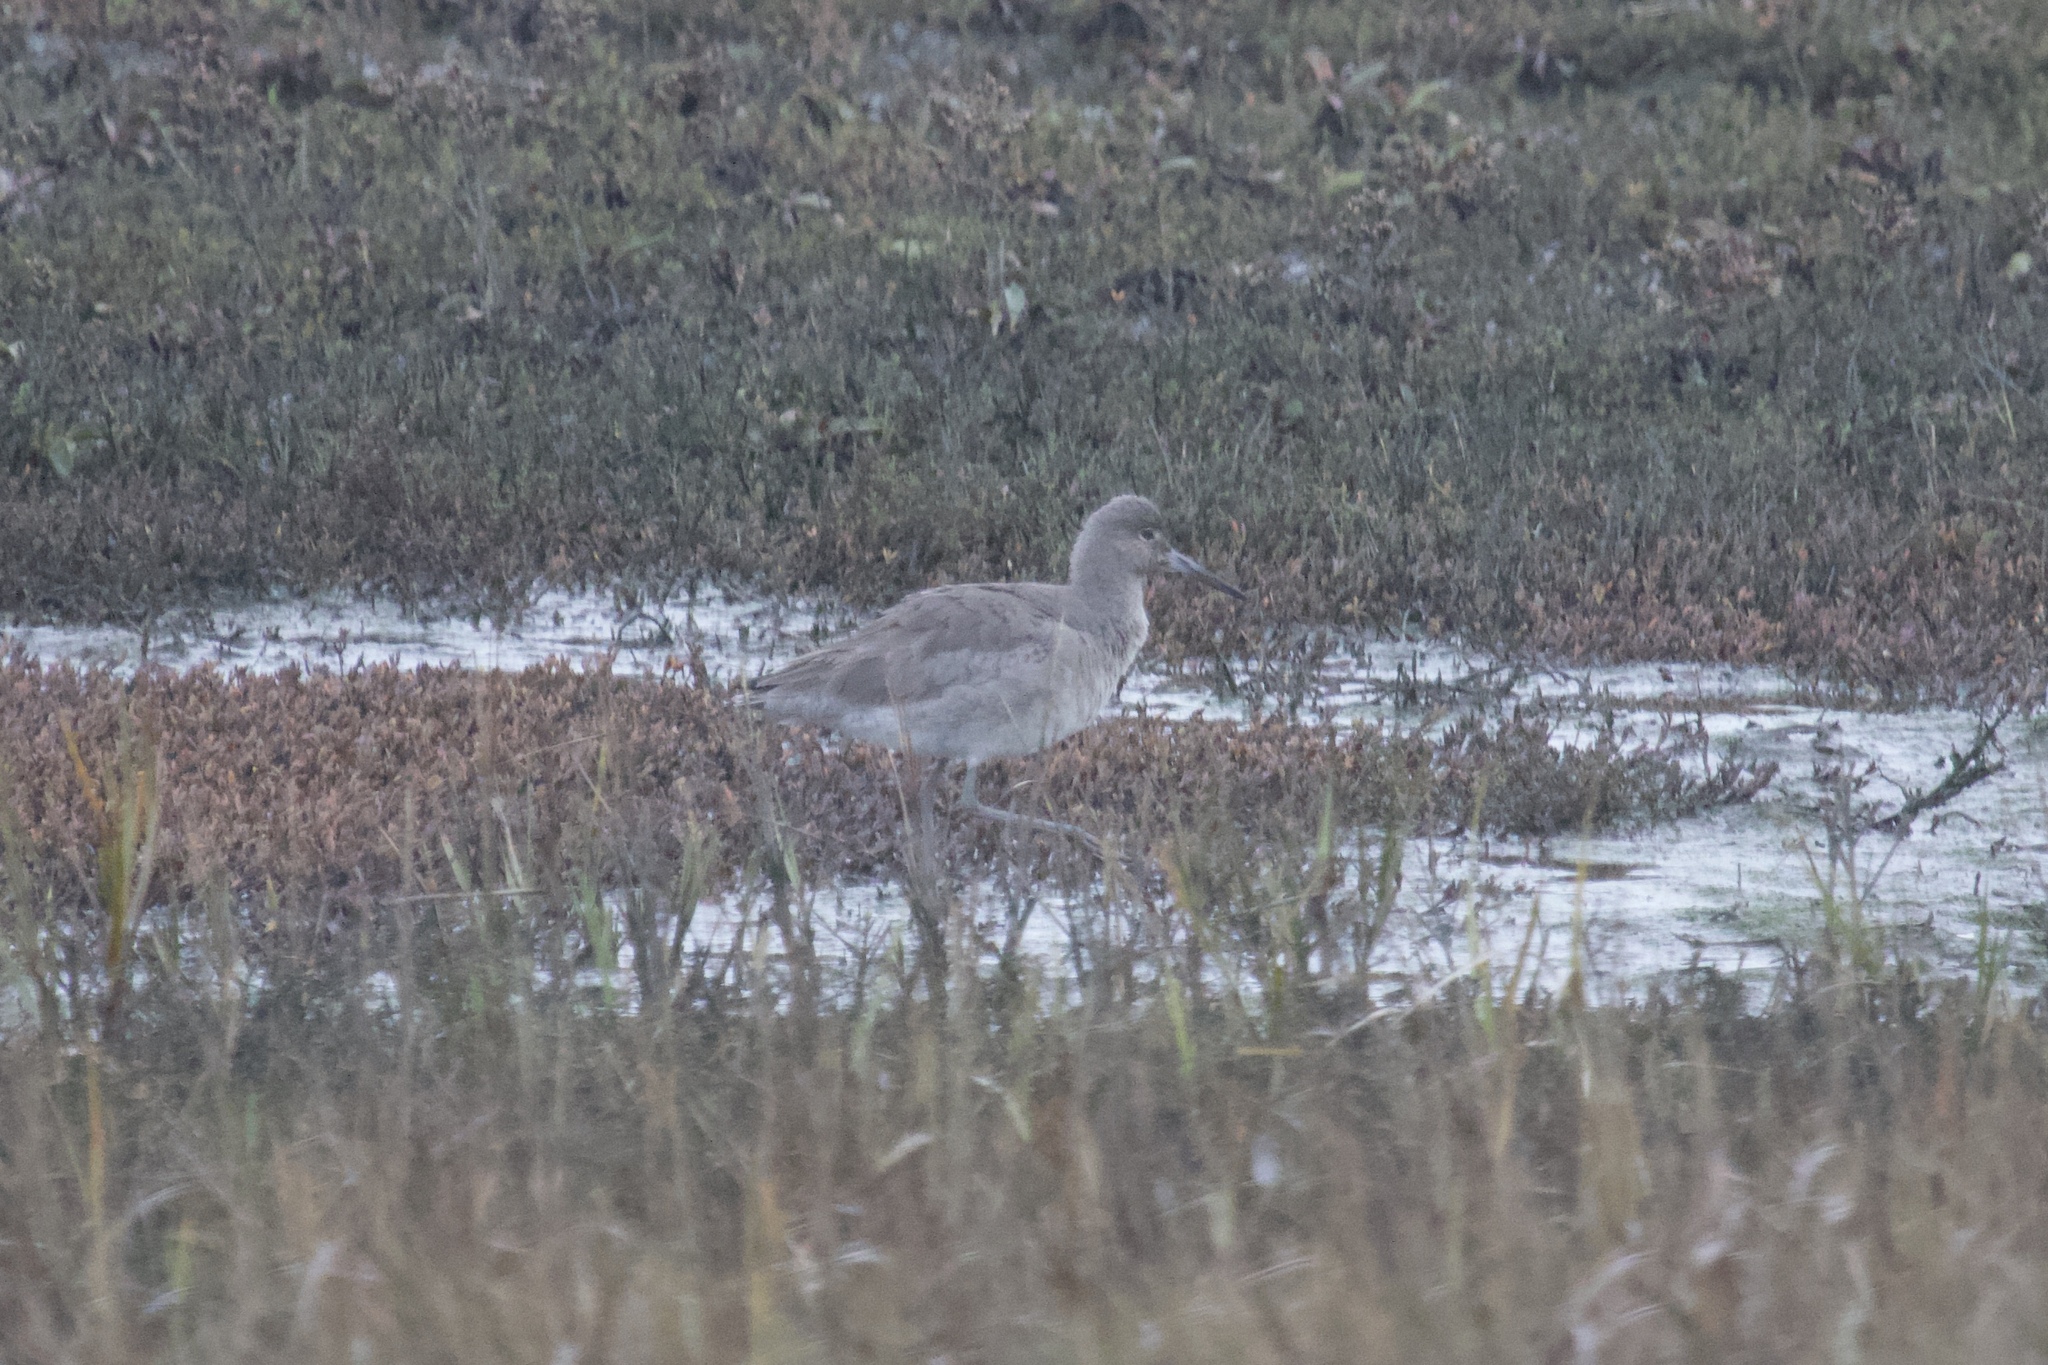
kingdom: Animalia
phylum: Chordata
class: Aves
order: Charadriiformes
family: Scolopacidae
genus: Tringa
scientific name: Tringa semipalmata
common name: Willet
